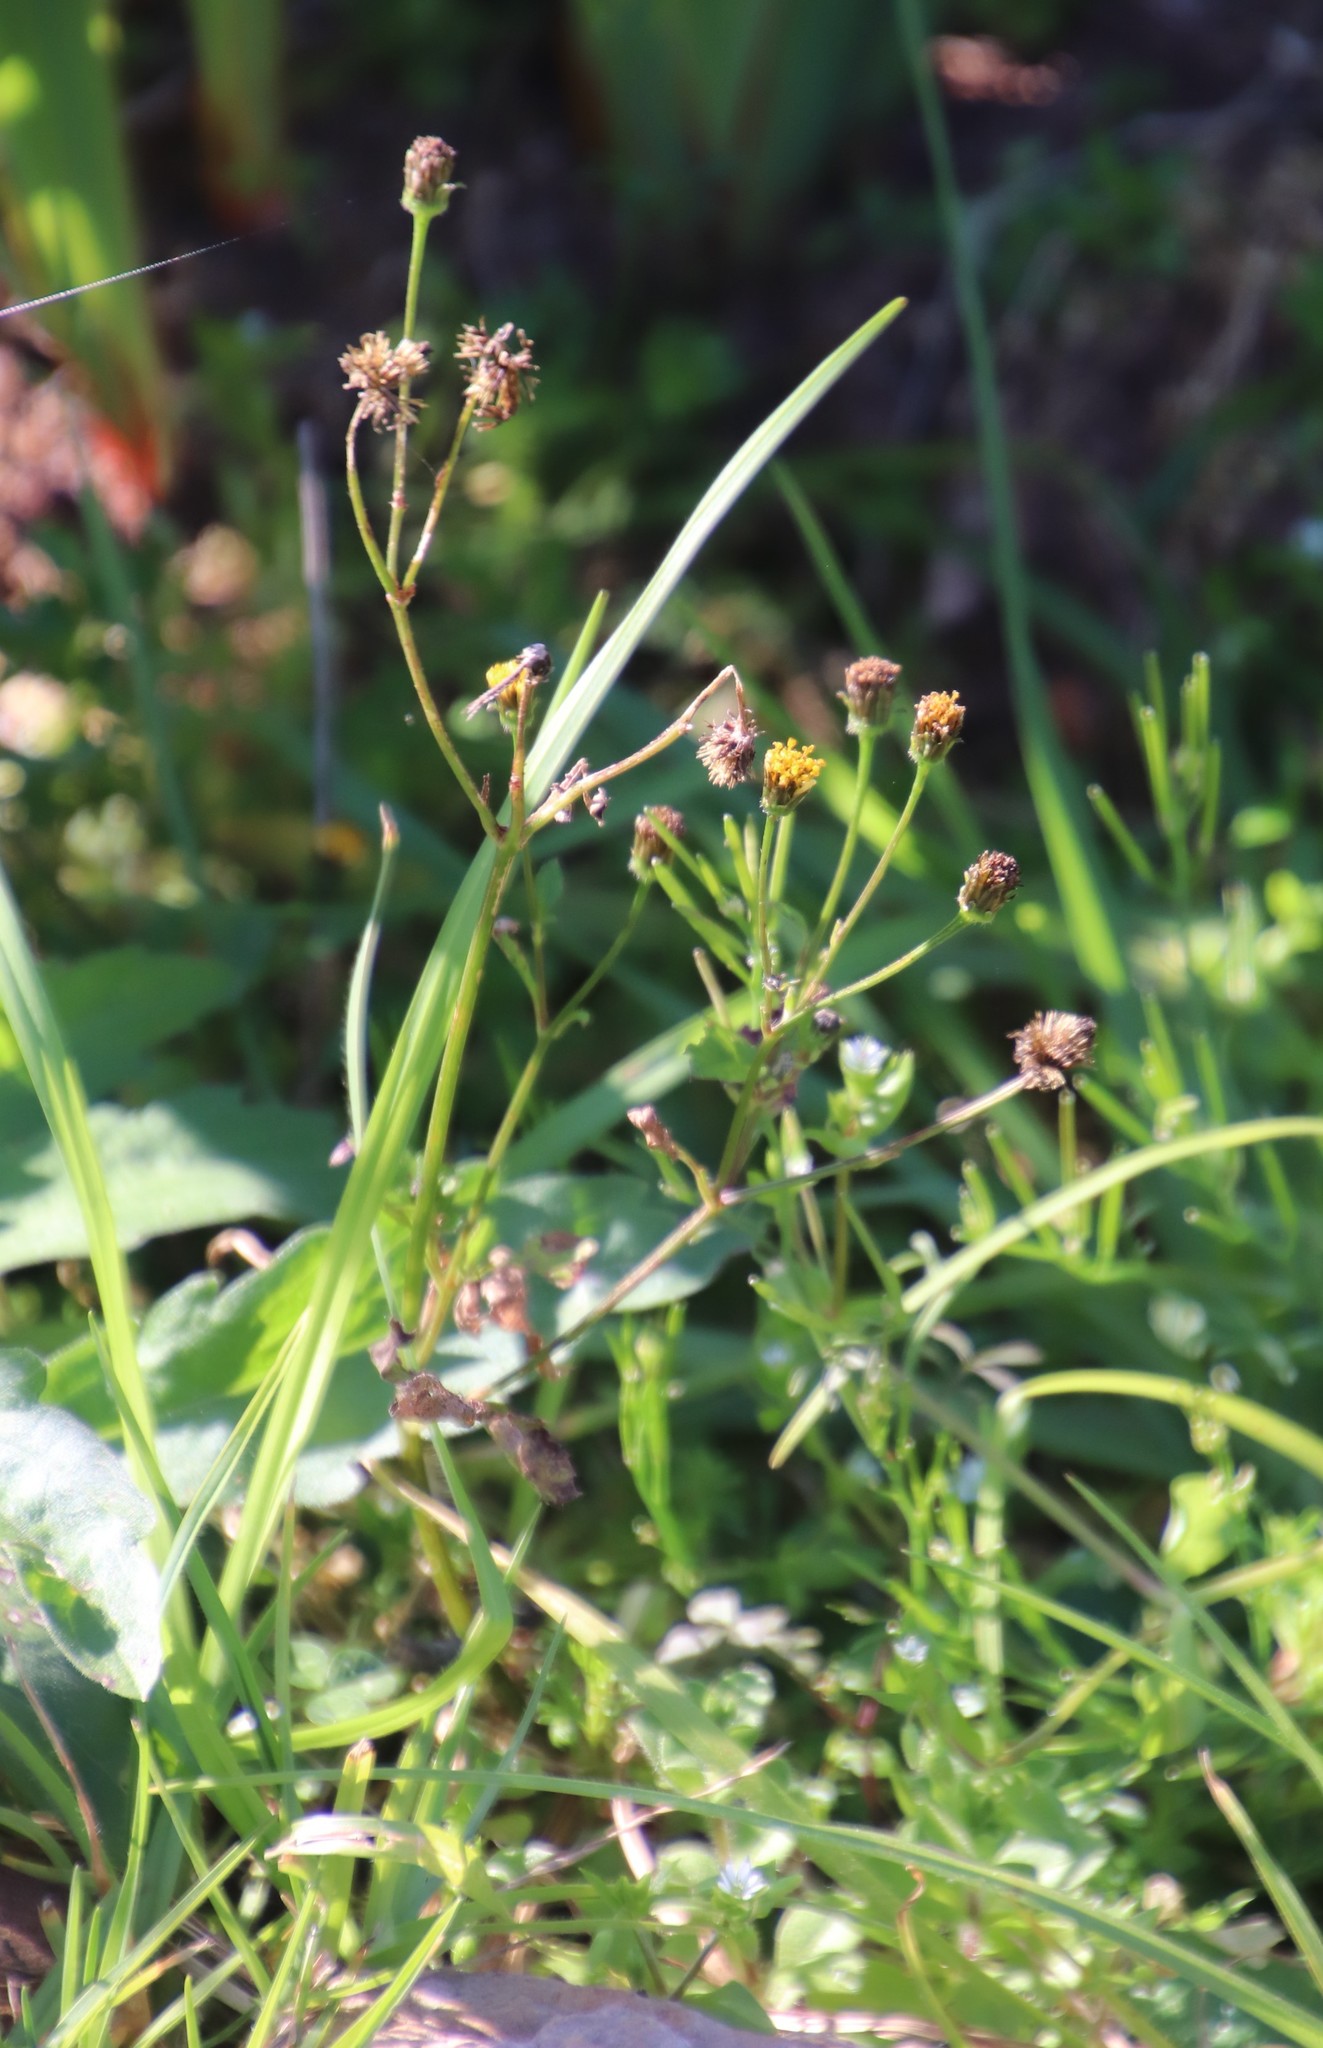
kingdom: Plantae
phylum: Tracheophyta
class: Magnoliopsida
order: Asterales
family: Asteraceae
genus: Bidens
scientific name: Bidens pilosa
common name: Black-jack
